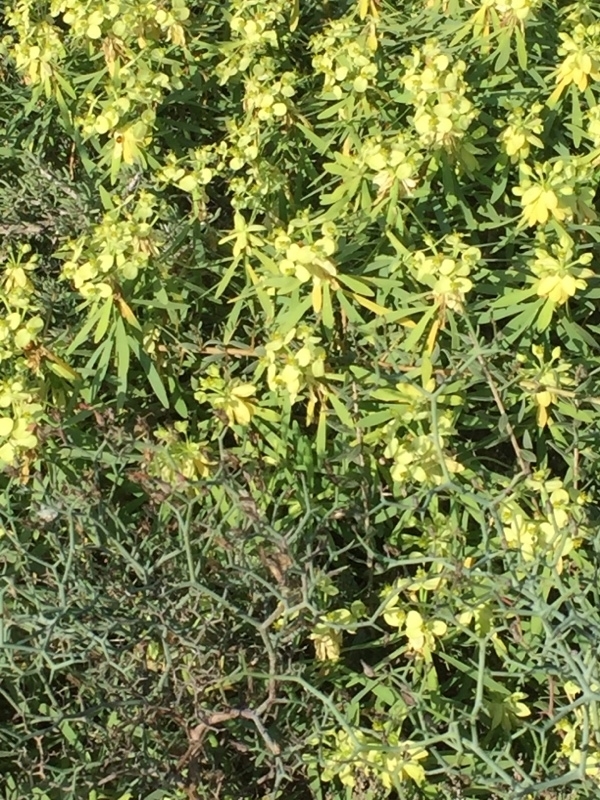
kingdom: Plantae
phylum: Tracheophyta
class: Magnoliopsida
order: Malpighiales
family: Euphorbiaceae
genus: Euphorbia
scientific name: Euphorbia regis-jubae
